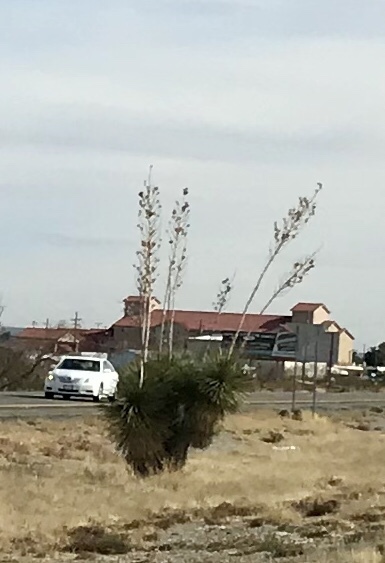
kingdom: Plantae
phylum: Tracheophyta
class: Liliopsida
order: Asparagales
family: Asparagaceae
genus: Yucca
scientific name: Yucca elata
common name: Palmella
